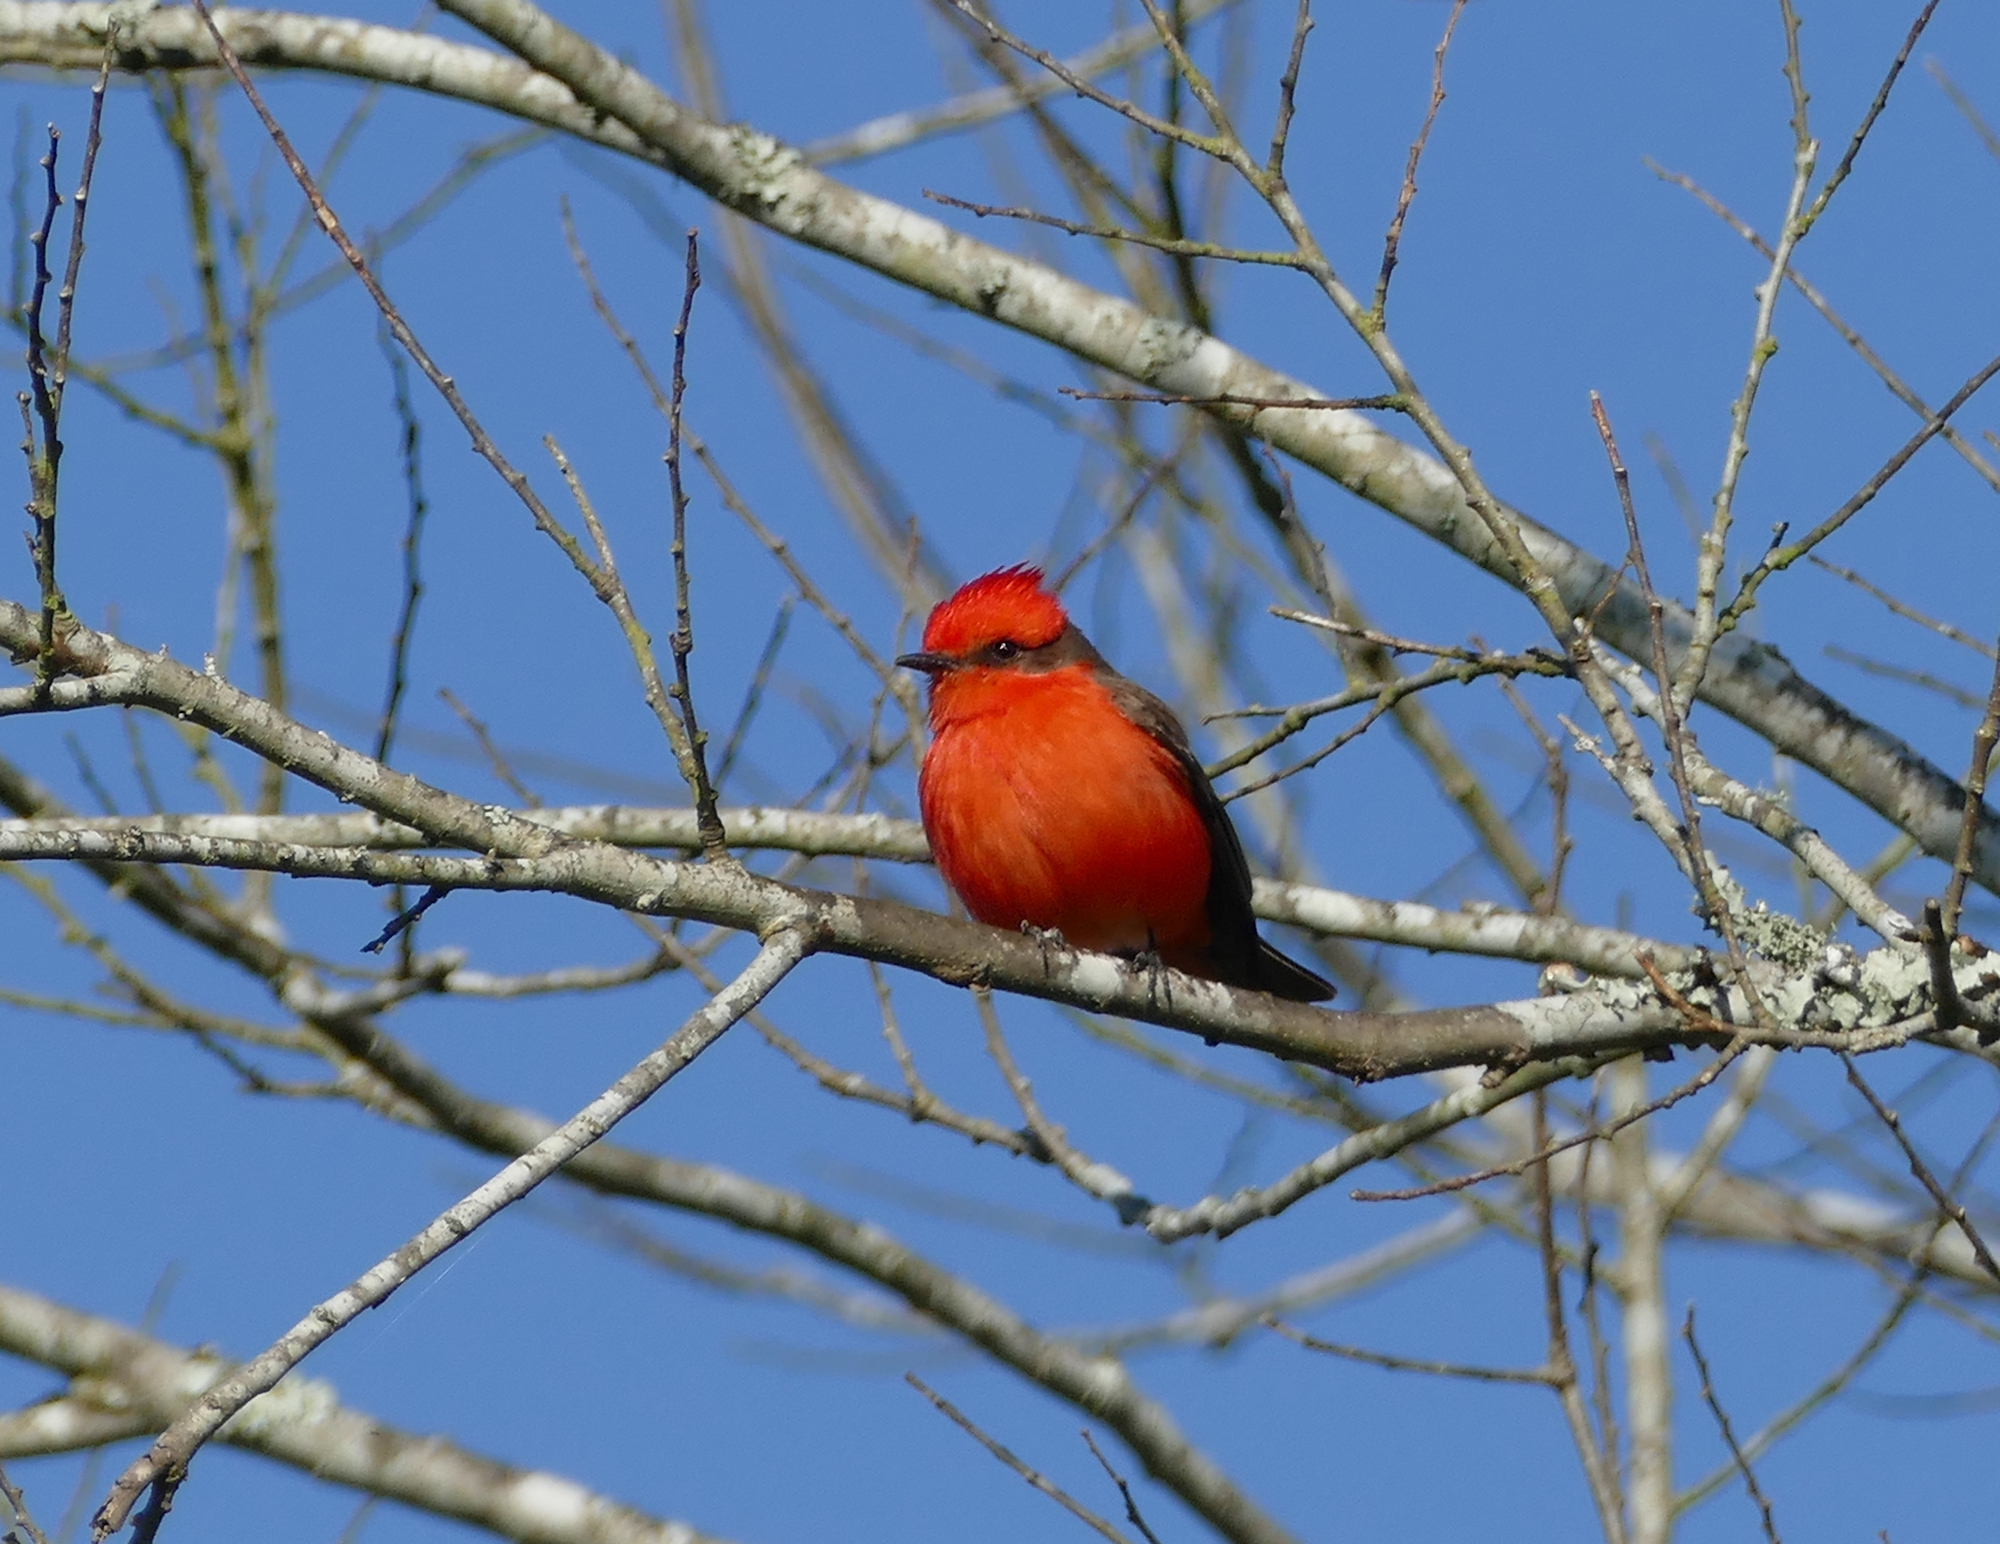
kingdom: Animalia
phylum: Chordata
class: Aves
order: Passeriformes
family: Tyrannidae
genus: Pyrocephalus
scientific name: Pyrocephalus rubinus
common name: Vermilion flycatcher
